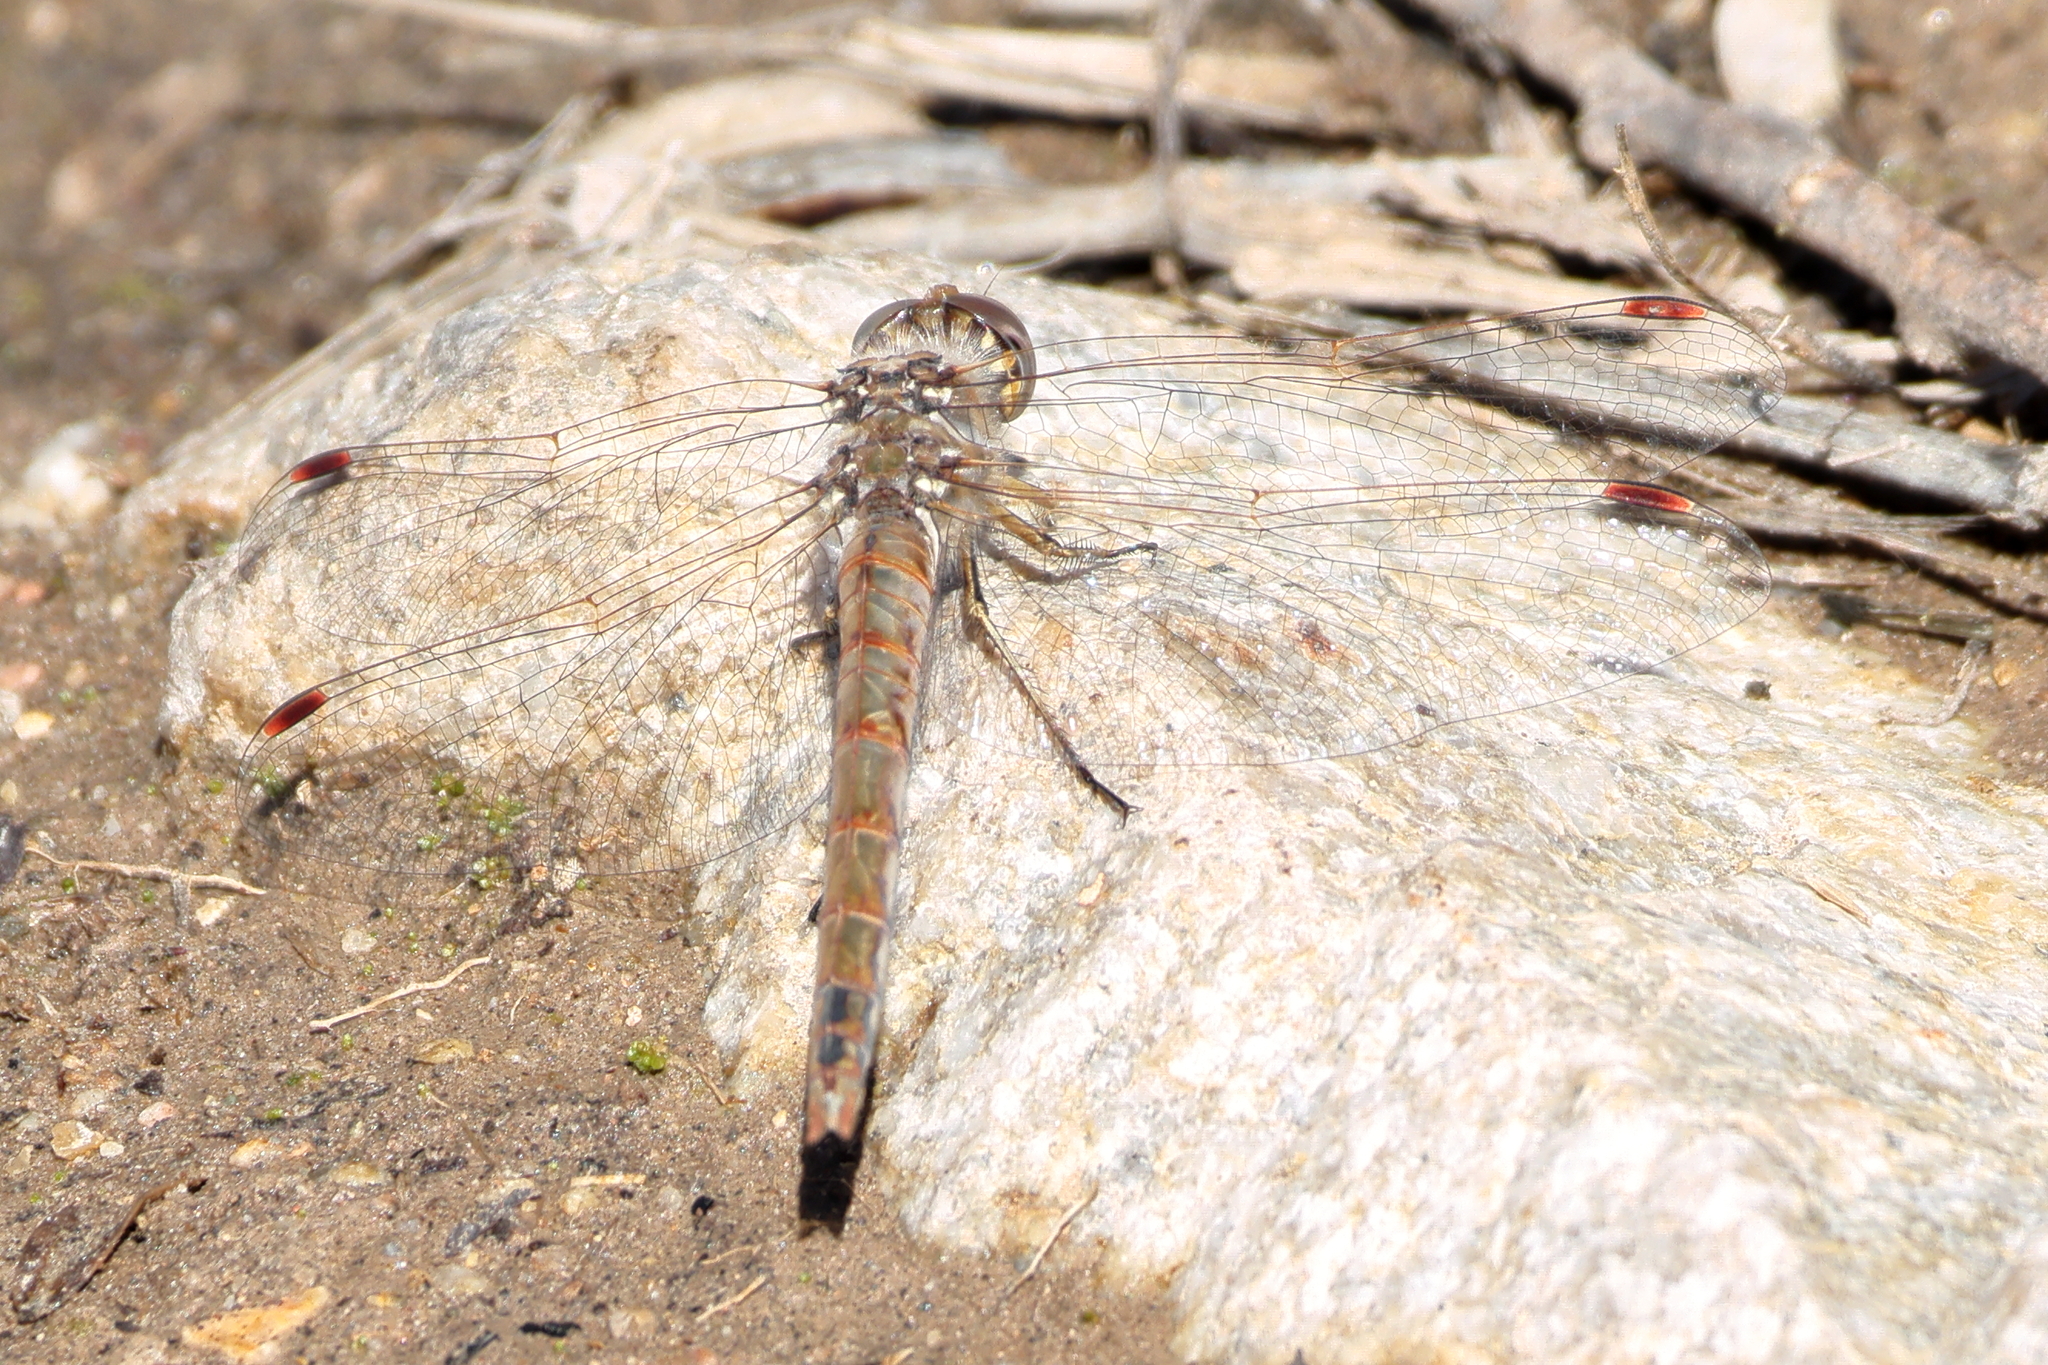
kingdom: Animalia
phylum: Arthropoda
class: Insecta
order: Odonata
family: Libellulidae
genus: Sympetrum
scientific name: Sympetrum corruptum
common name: Variegated meadowhawk
